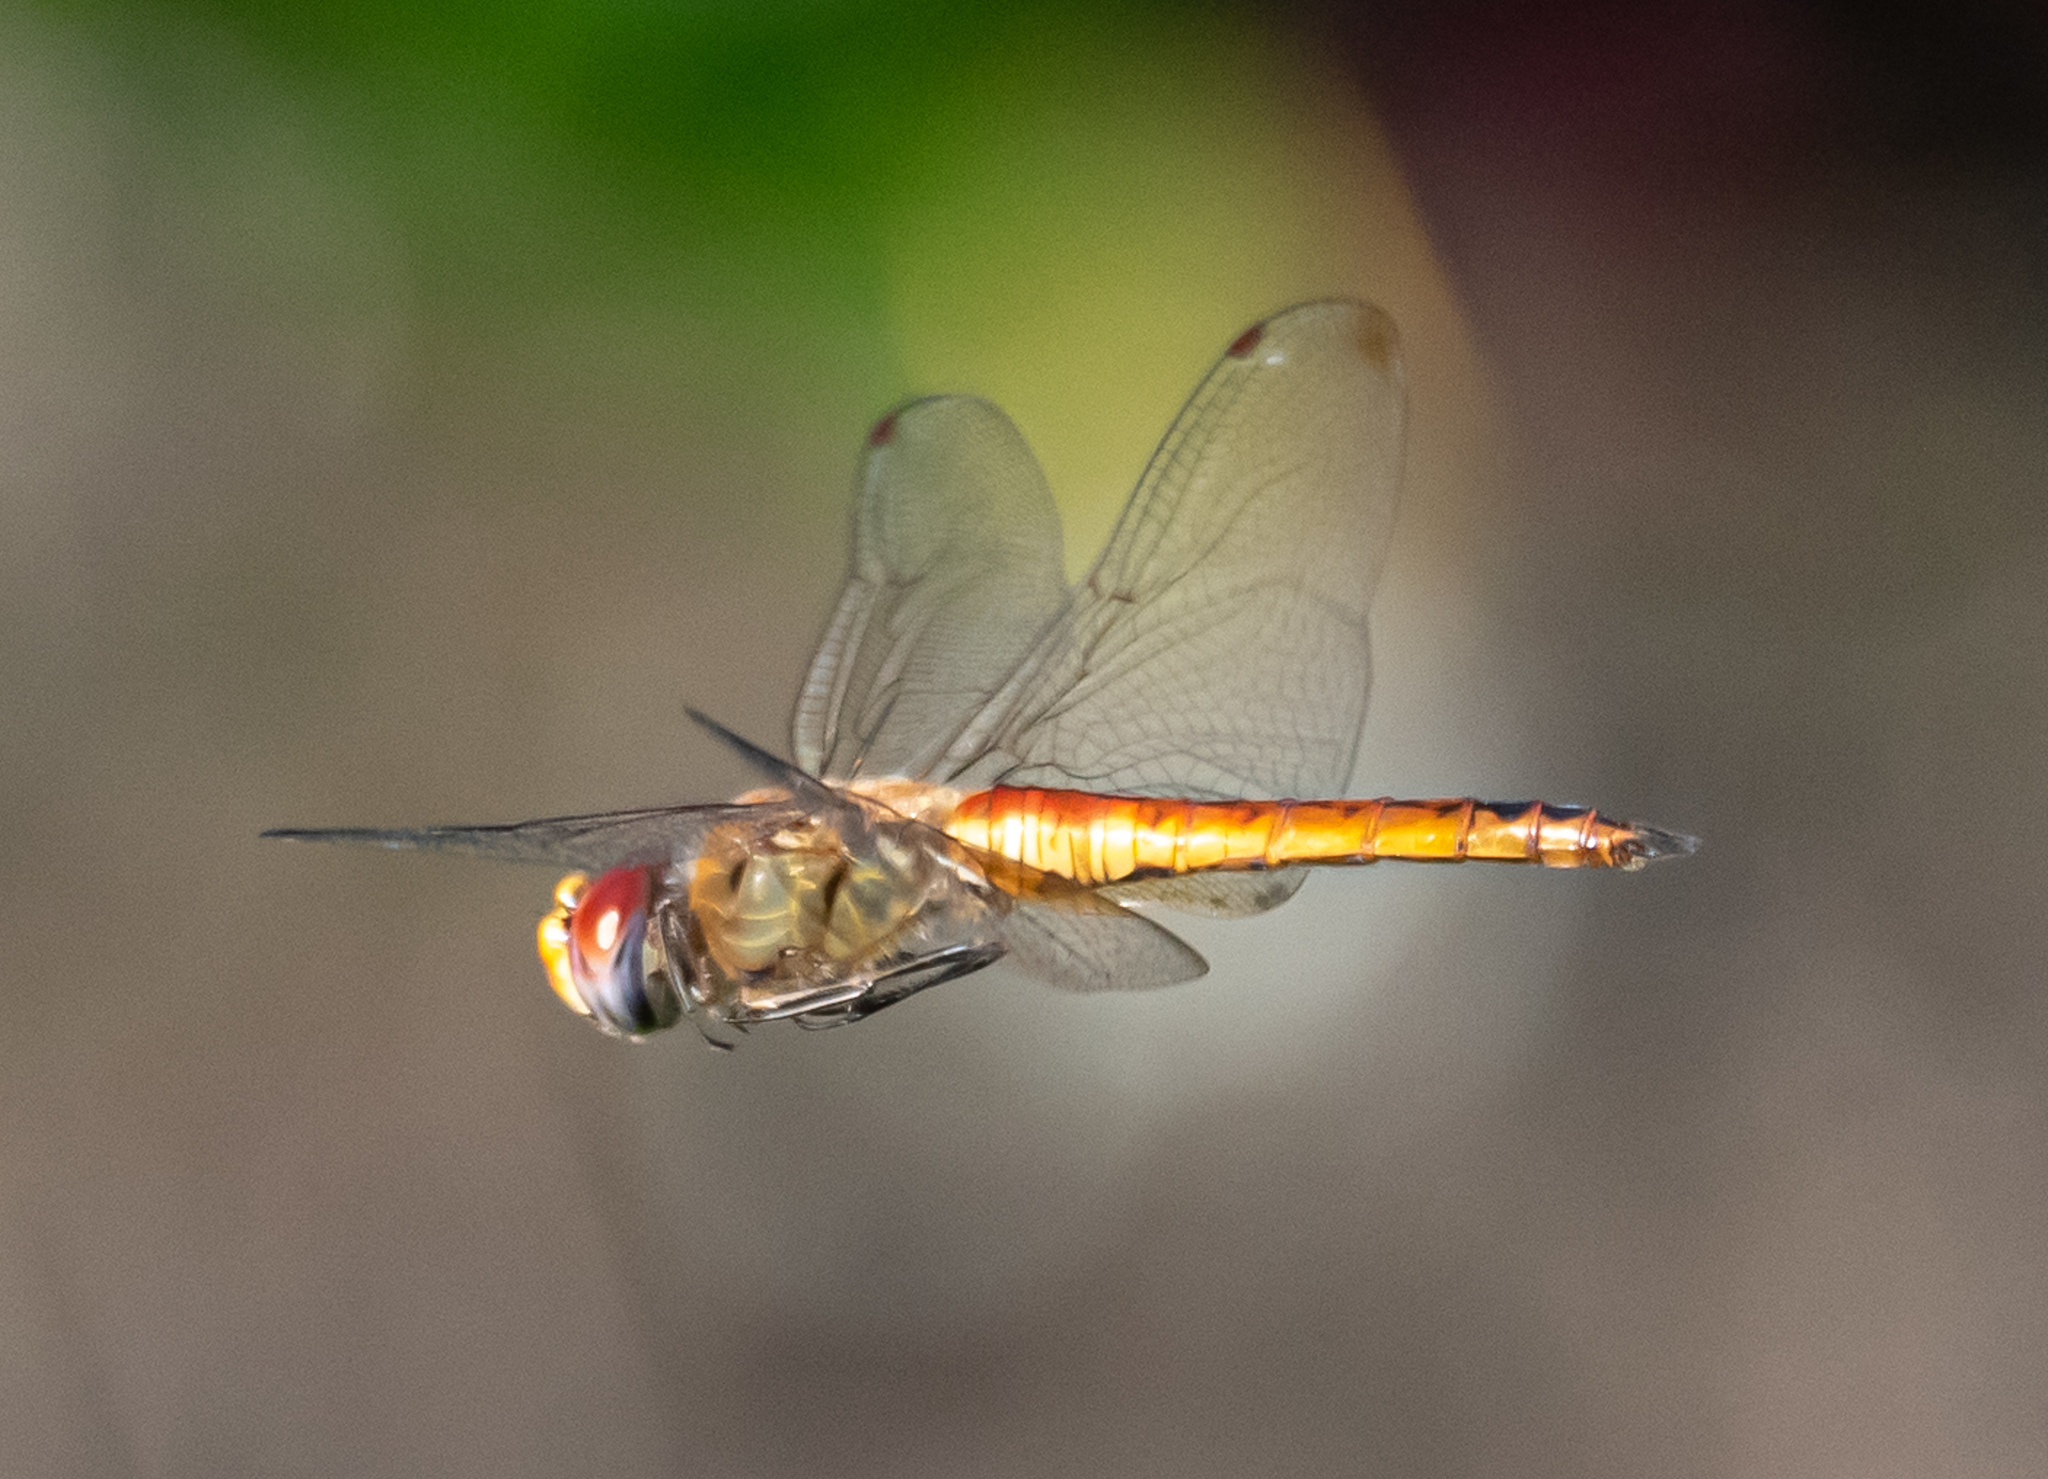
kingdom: Animalia
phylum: Arthropoda
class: Insecta
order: Odonata
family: Libellulidae
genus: Pantala
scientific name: Pantala flavescens
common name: Wandering glider
